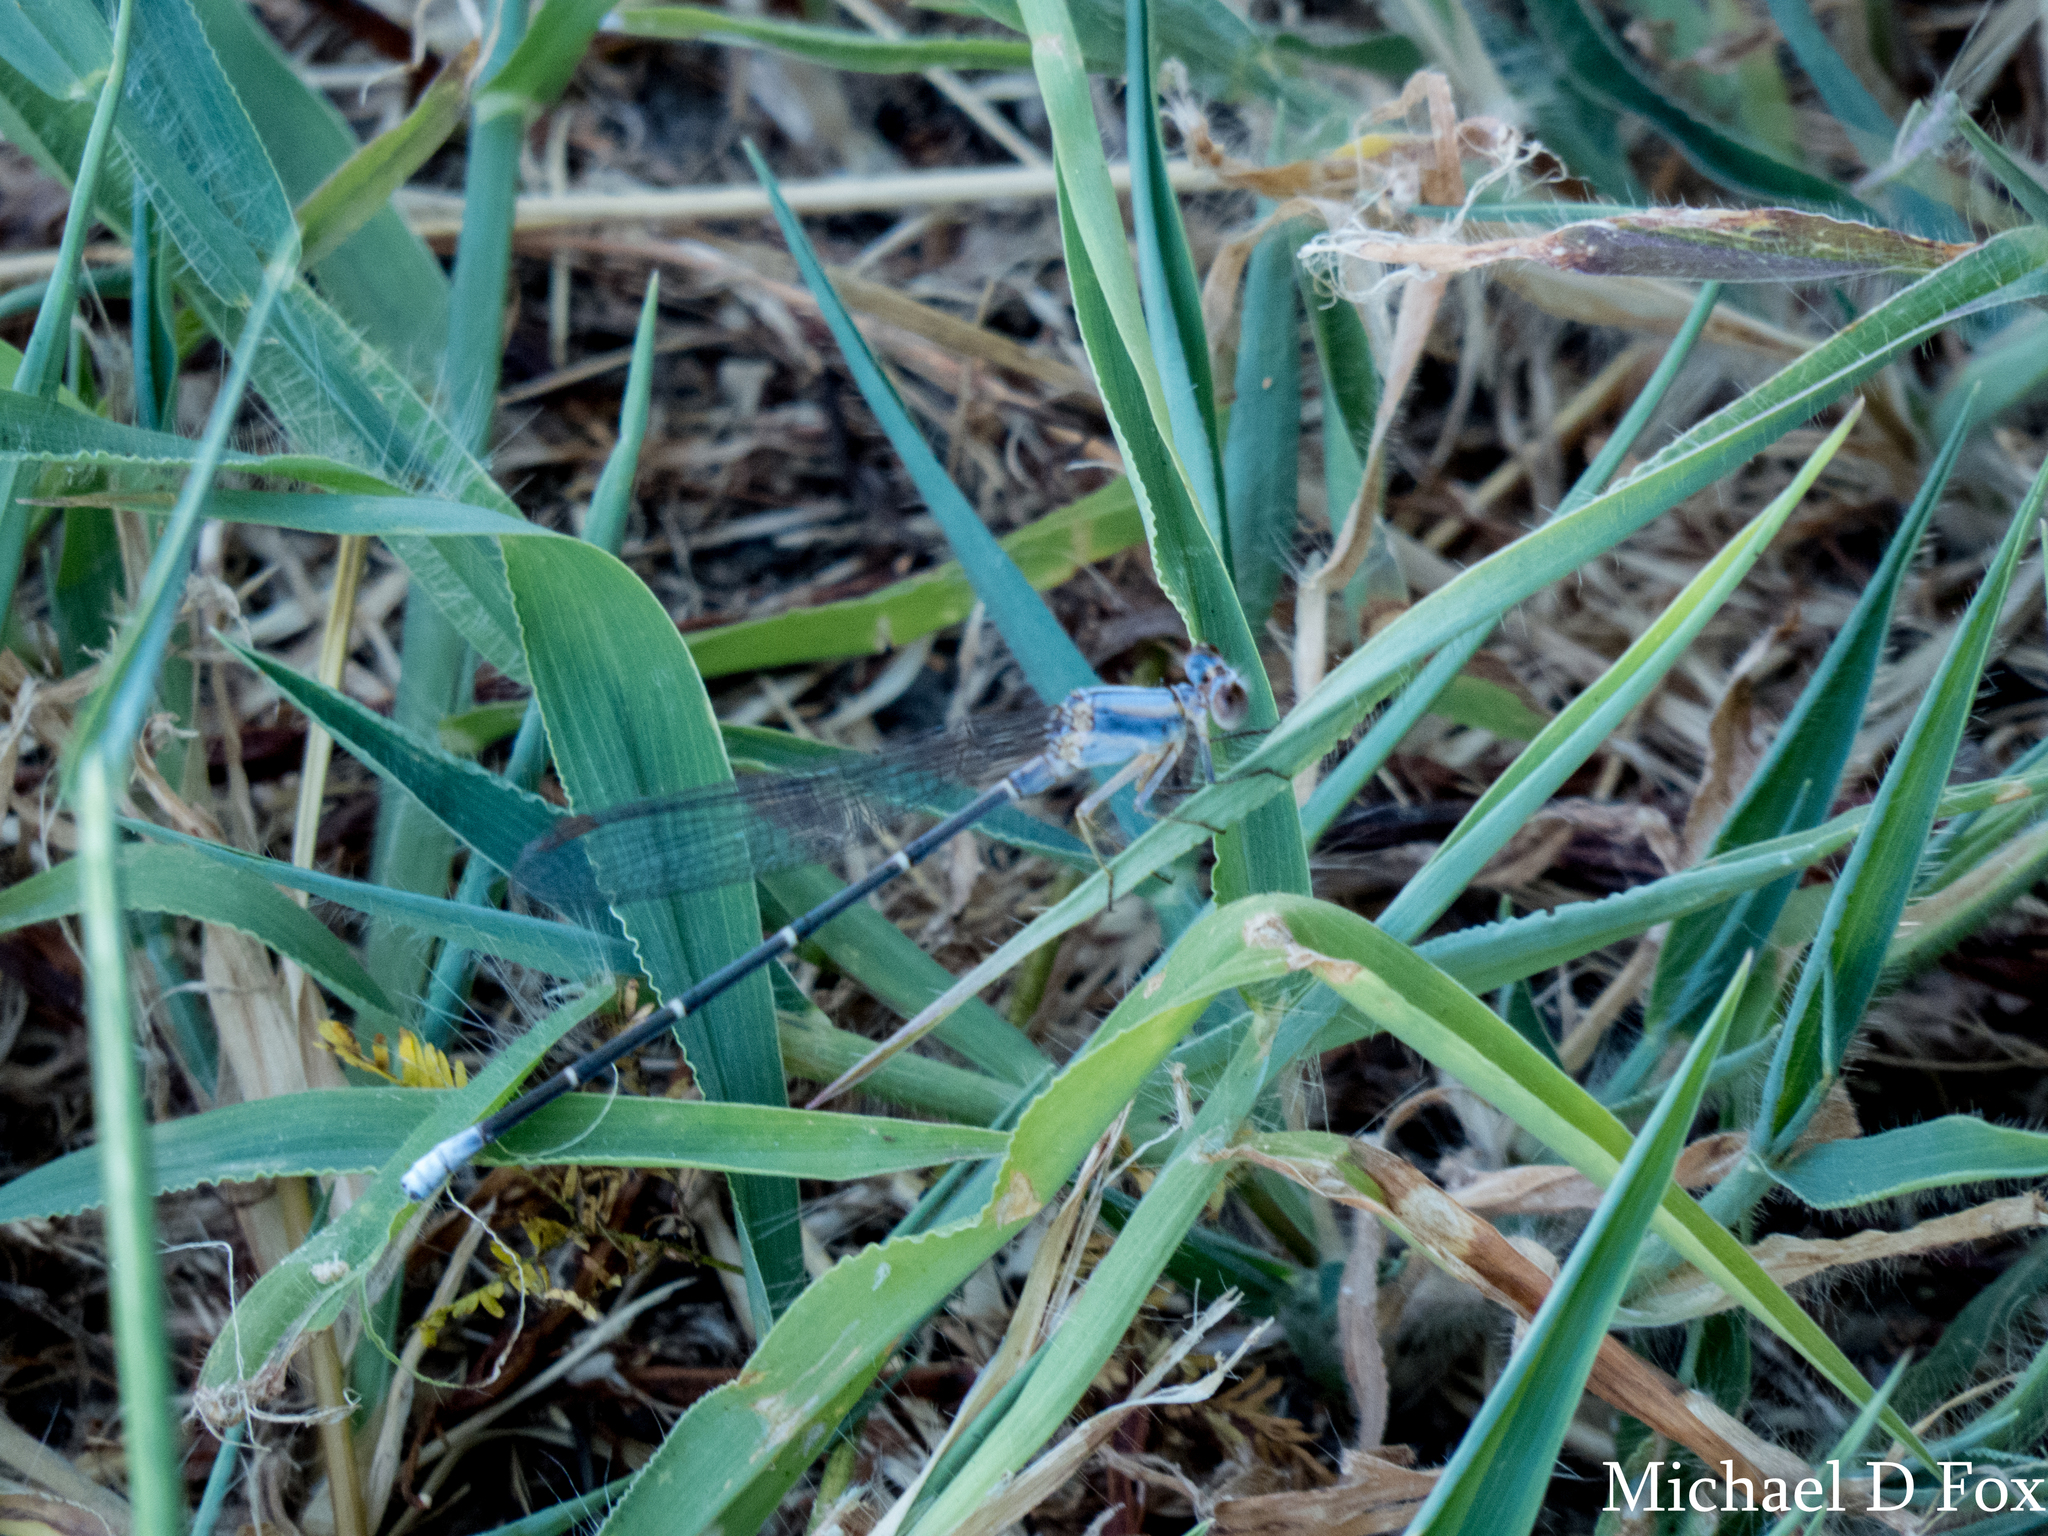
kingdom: Animalia
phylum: Arthropoda
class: Insecta
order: Odonata
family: Coenagrionidae
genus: Argia
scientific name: Argia moesta
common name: Powdered dancer
